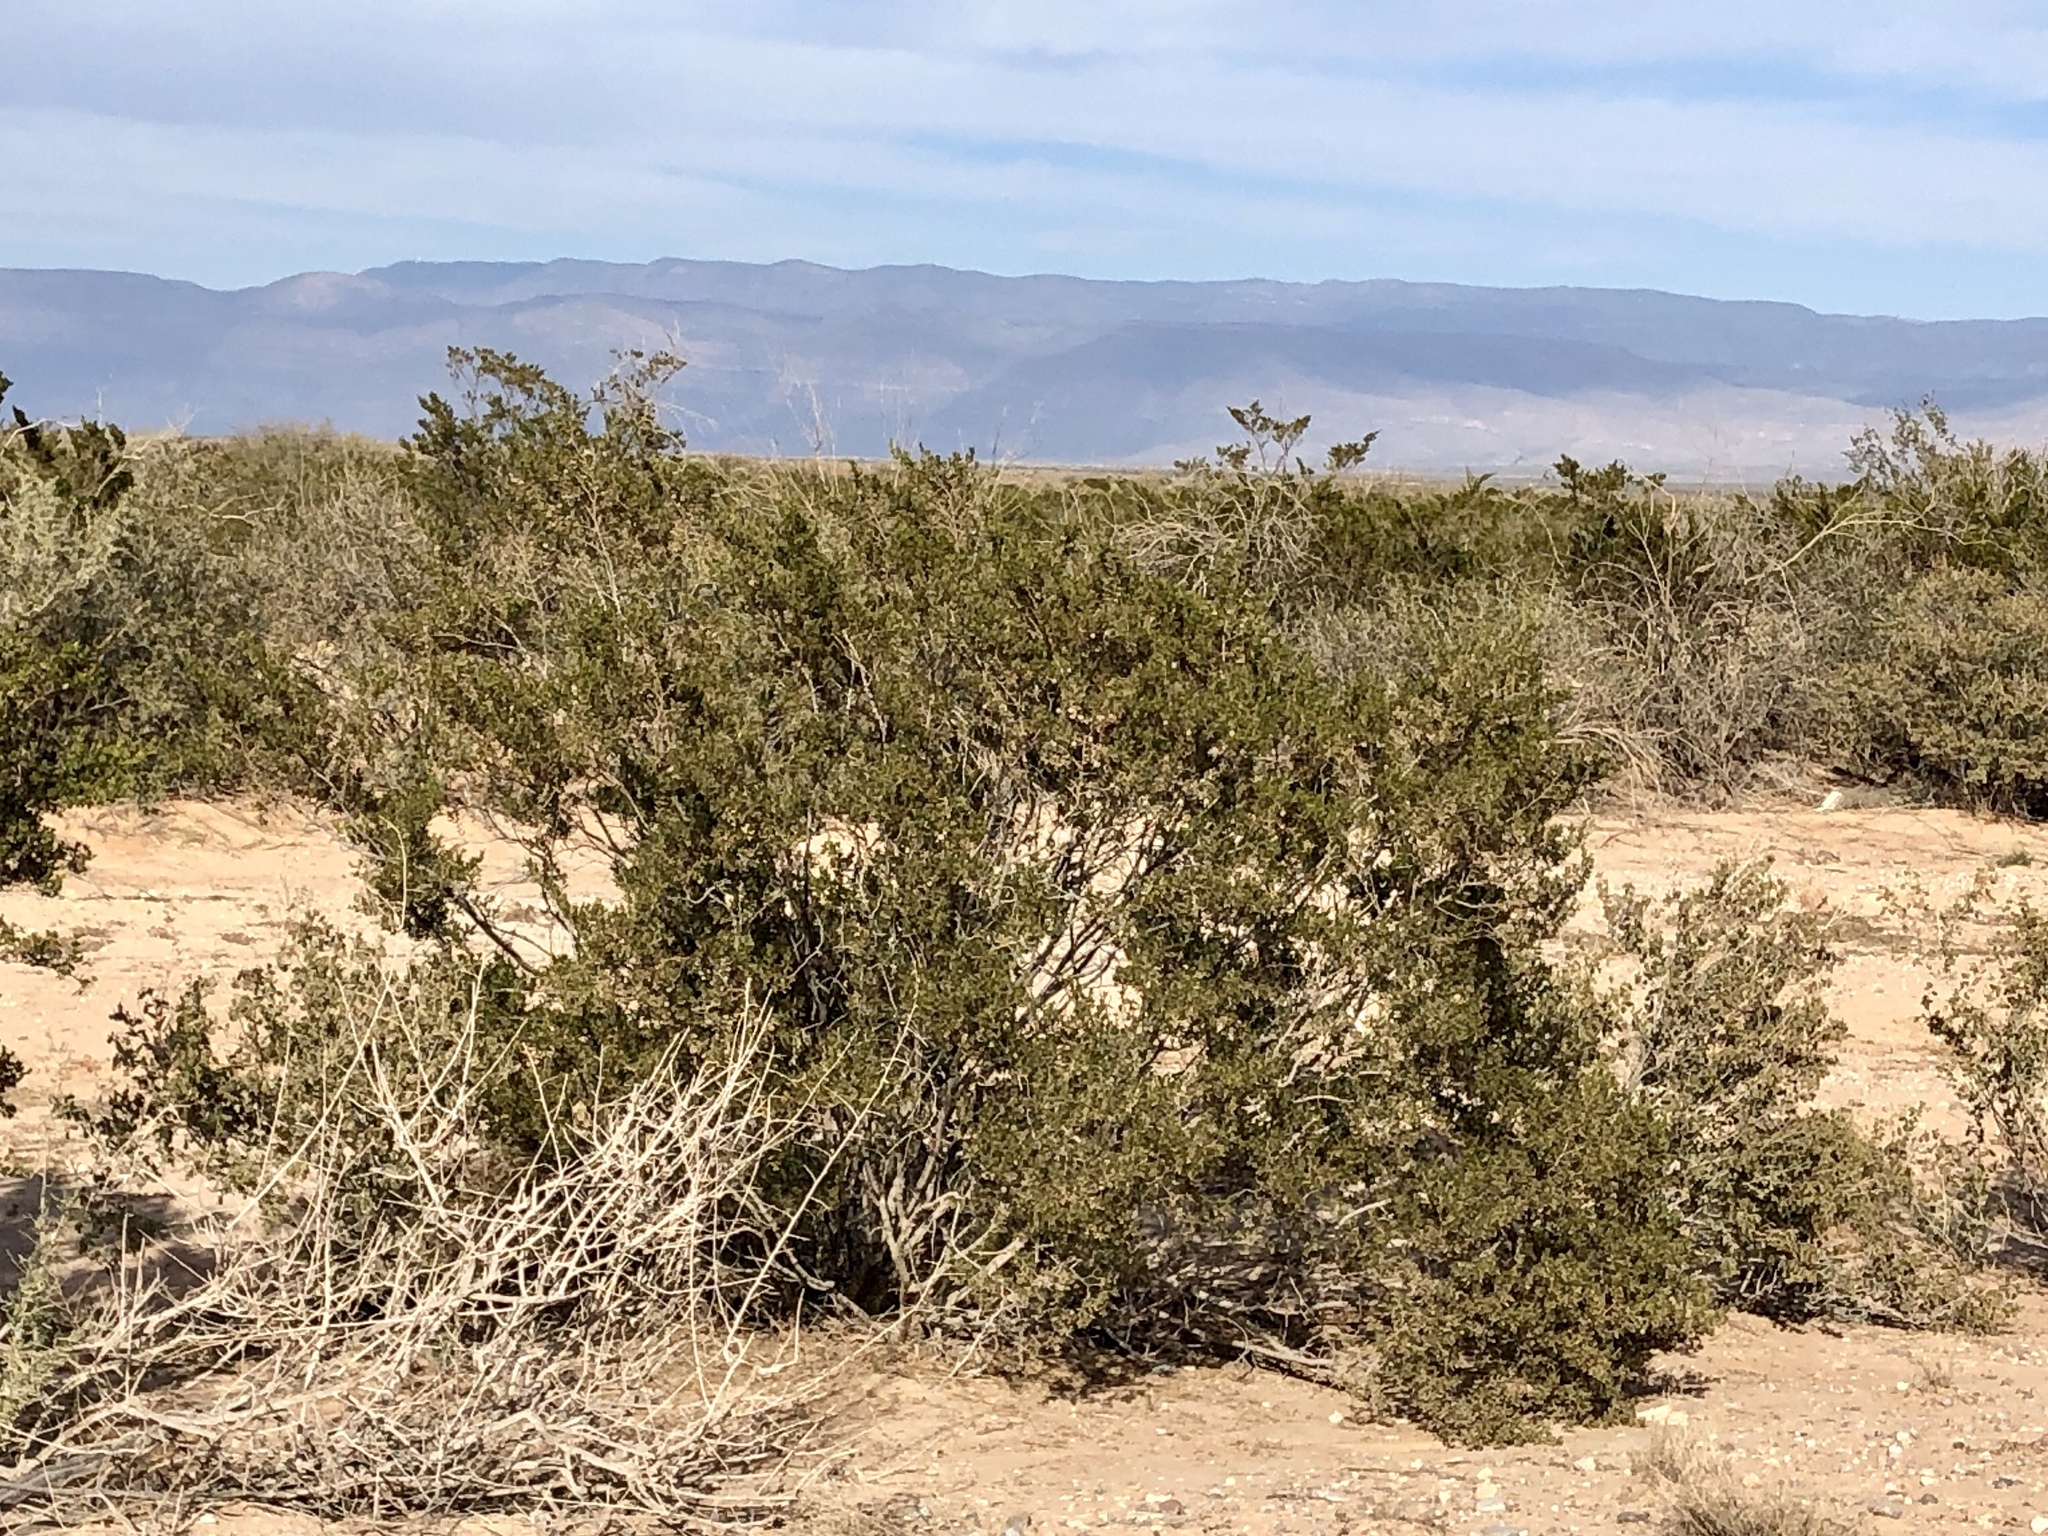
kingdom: Plantae
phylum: Tracheophyta
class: Magnoliopsida
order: Zygophyllales
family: Zygophyllaceae
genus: Larrea
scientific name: Larrea tridentata
